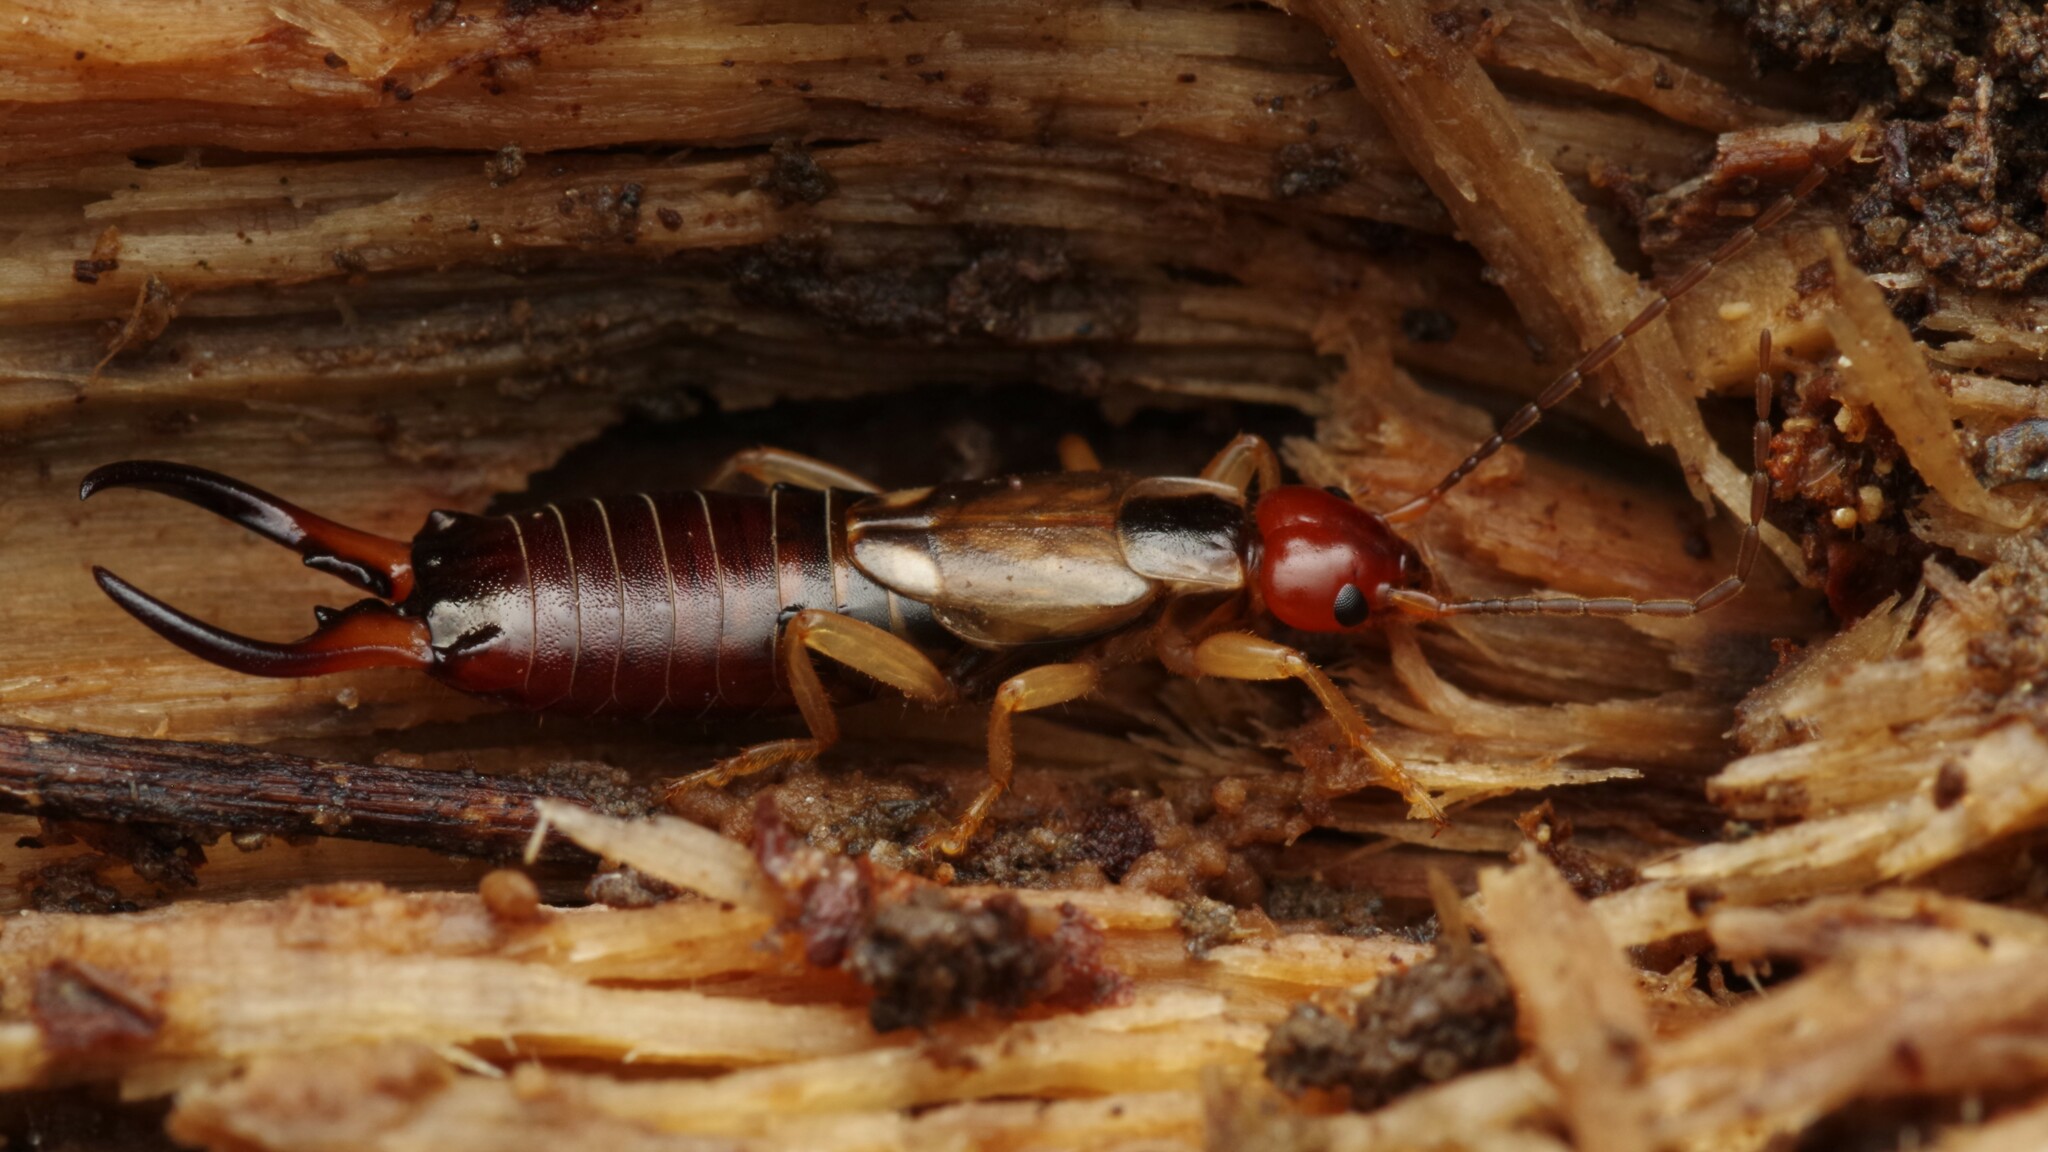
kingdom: Animalia
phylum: Arthropoda
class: Insecta
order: Dermaptera
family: Forficulidae
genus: Forficula
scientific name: Forficula
